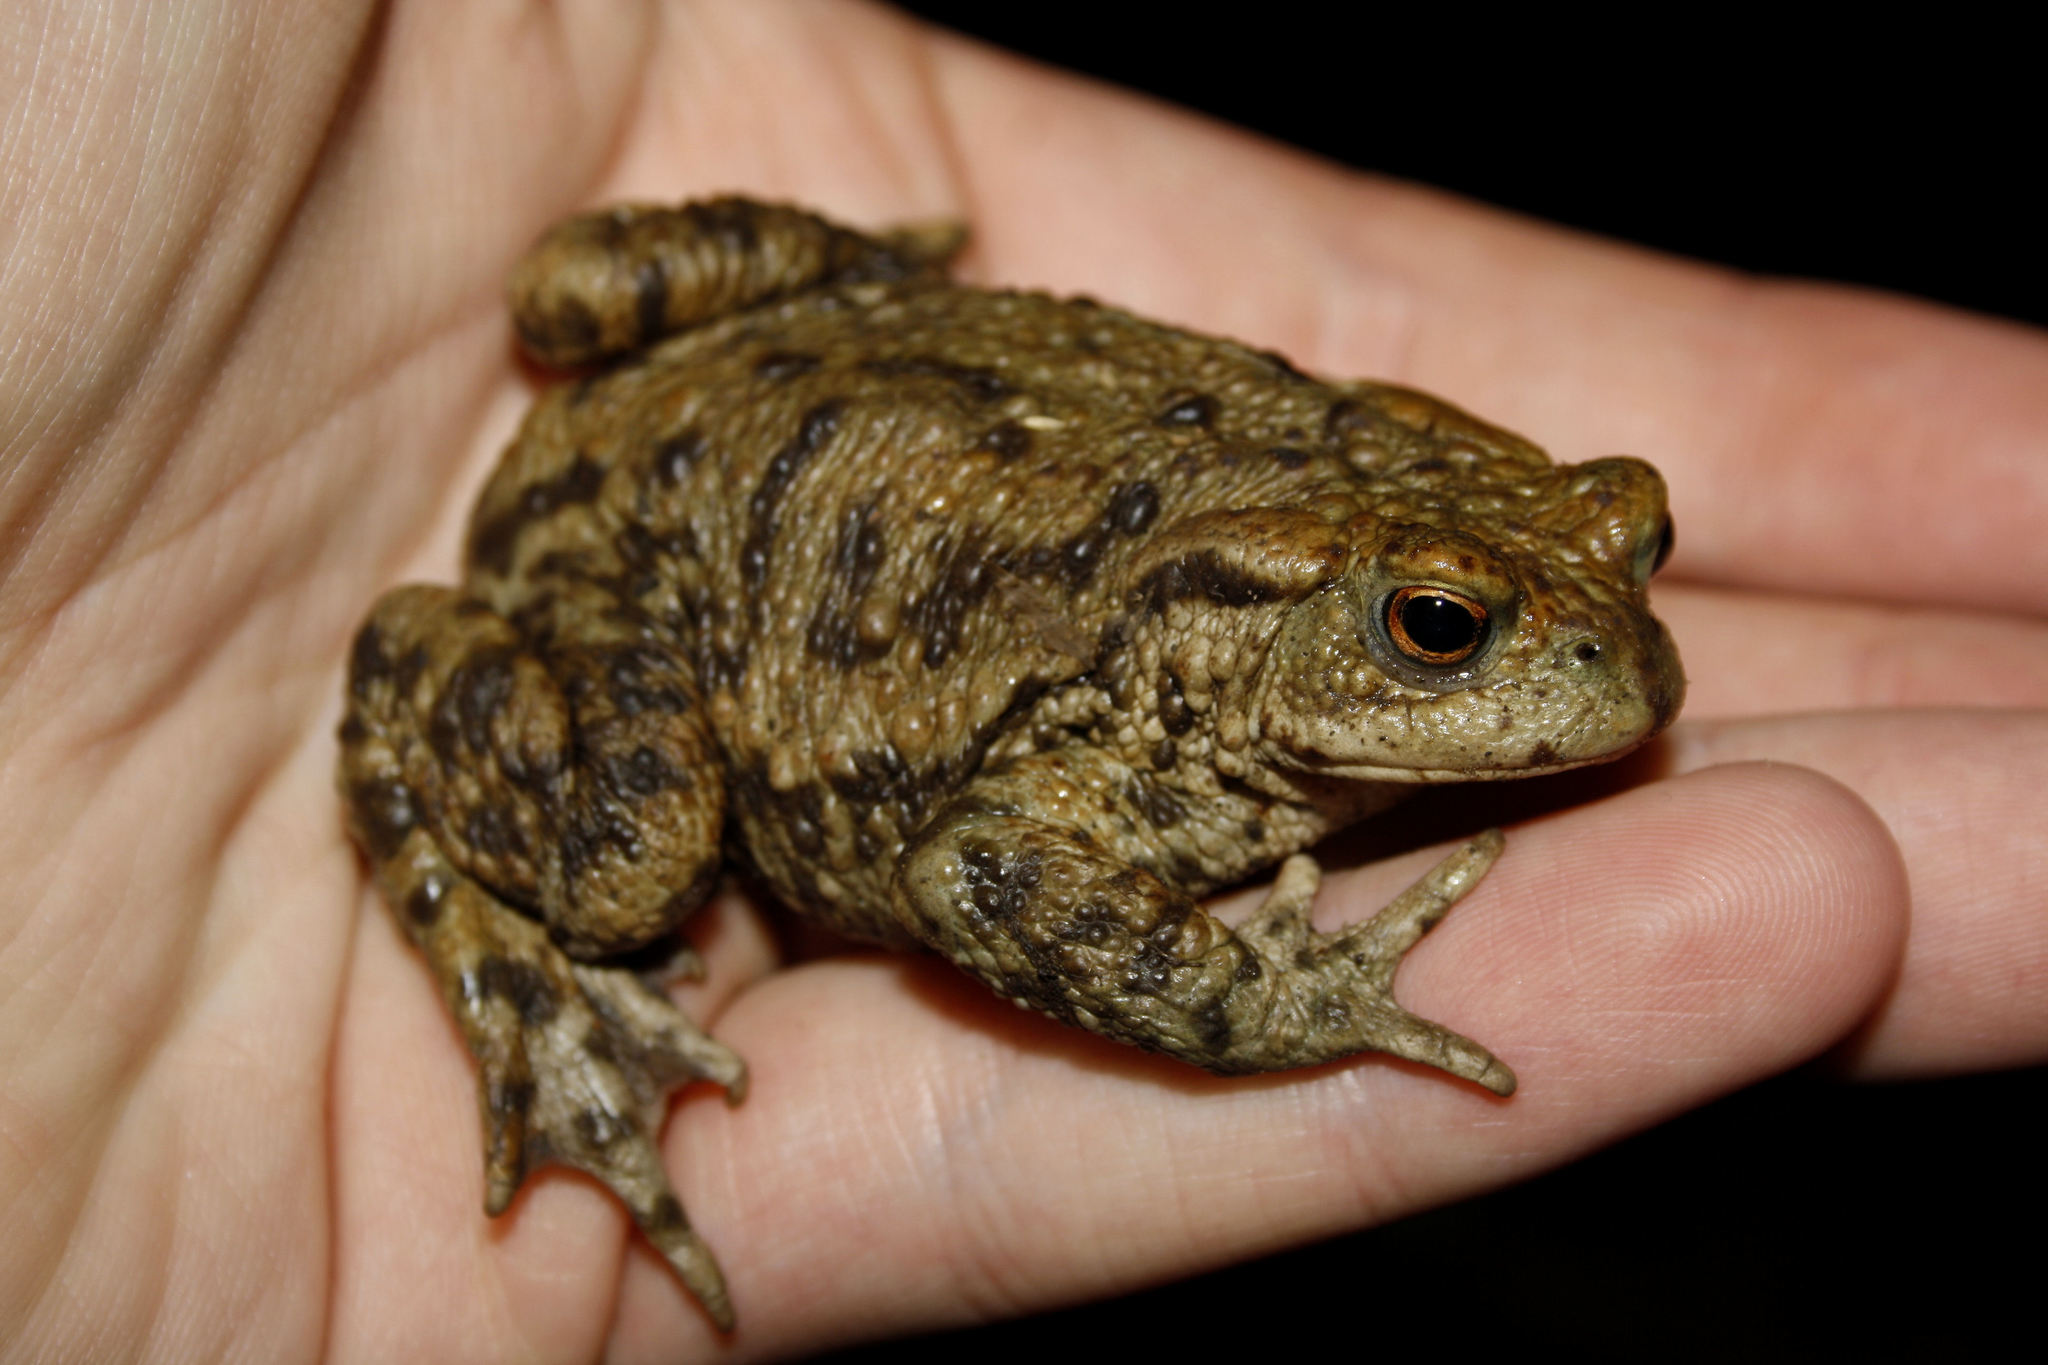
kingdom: Animalia
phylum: Chordata
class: Amphibia
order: Anura
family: Bufonidae
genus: Bufo
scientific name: Bufo bufo
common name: Common toad
